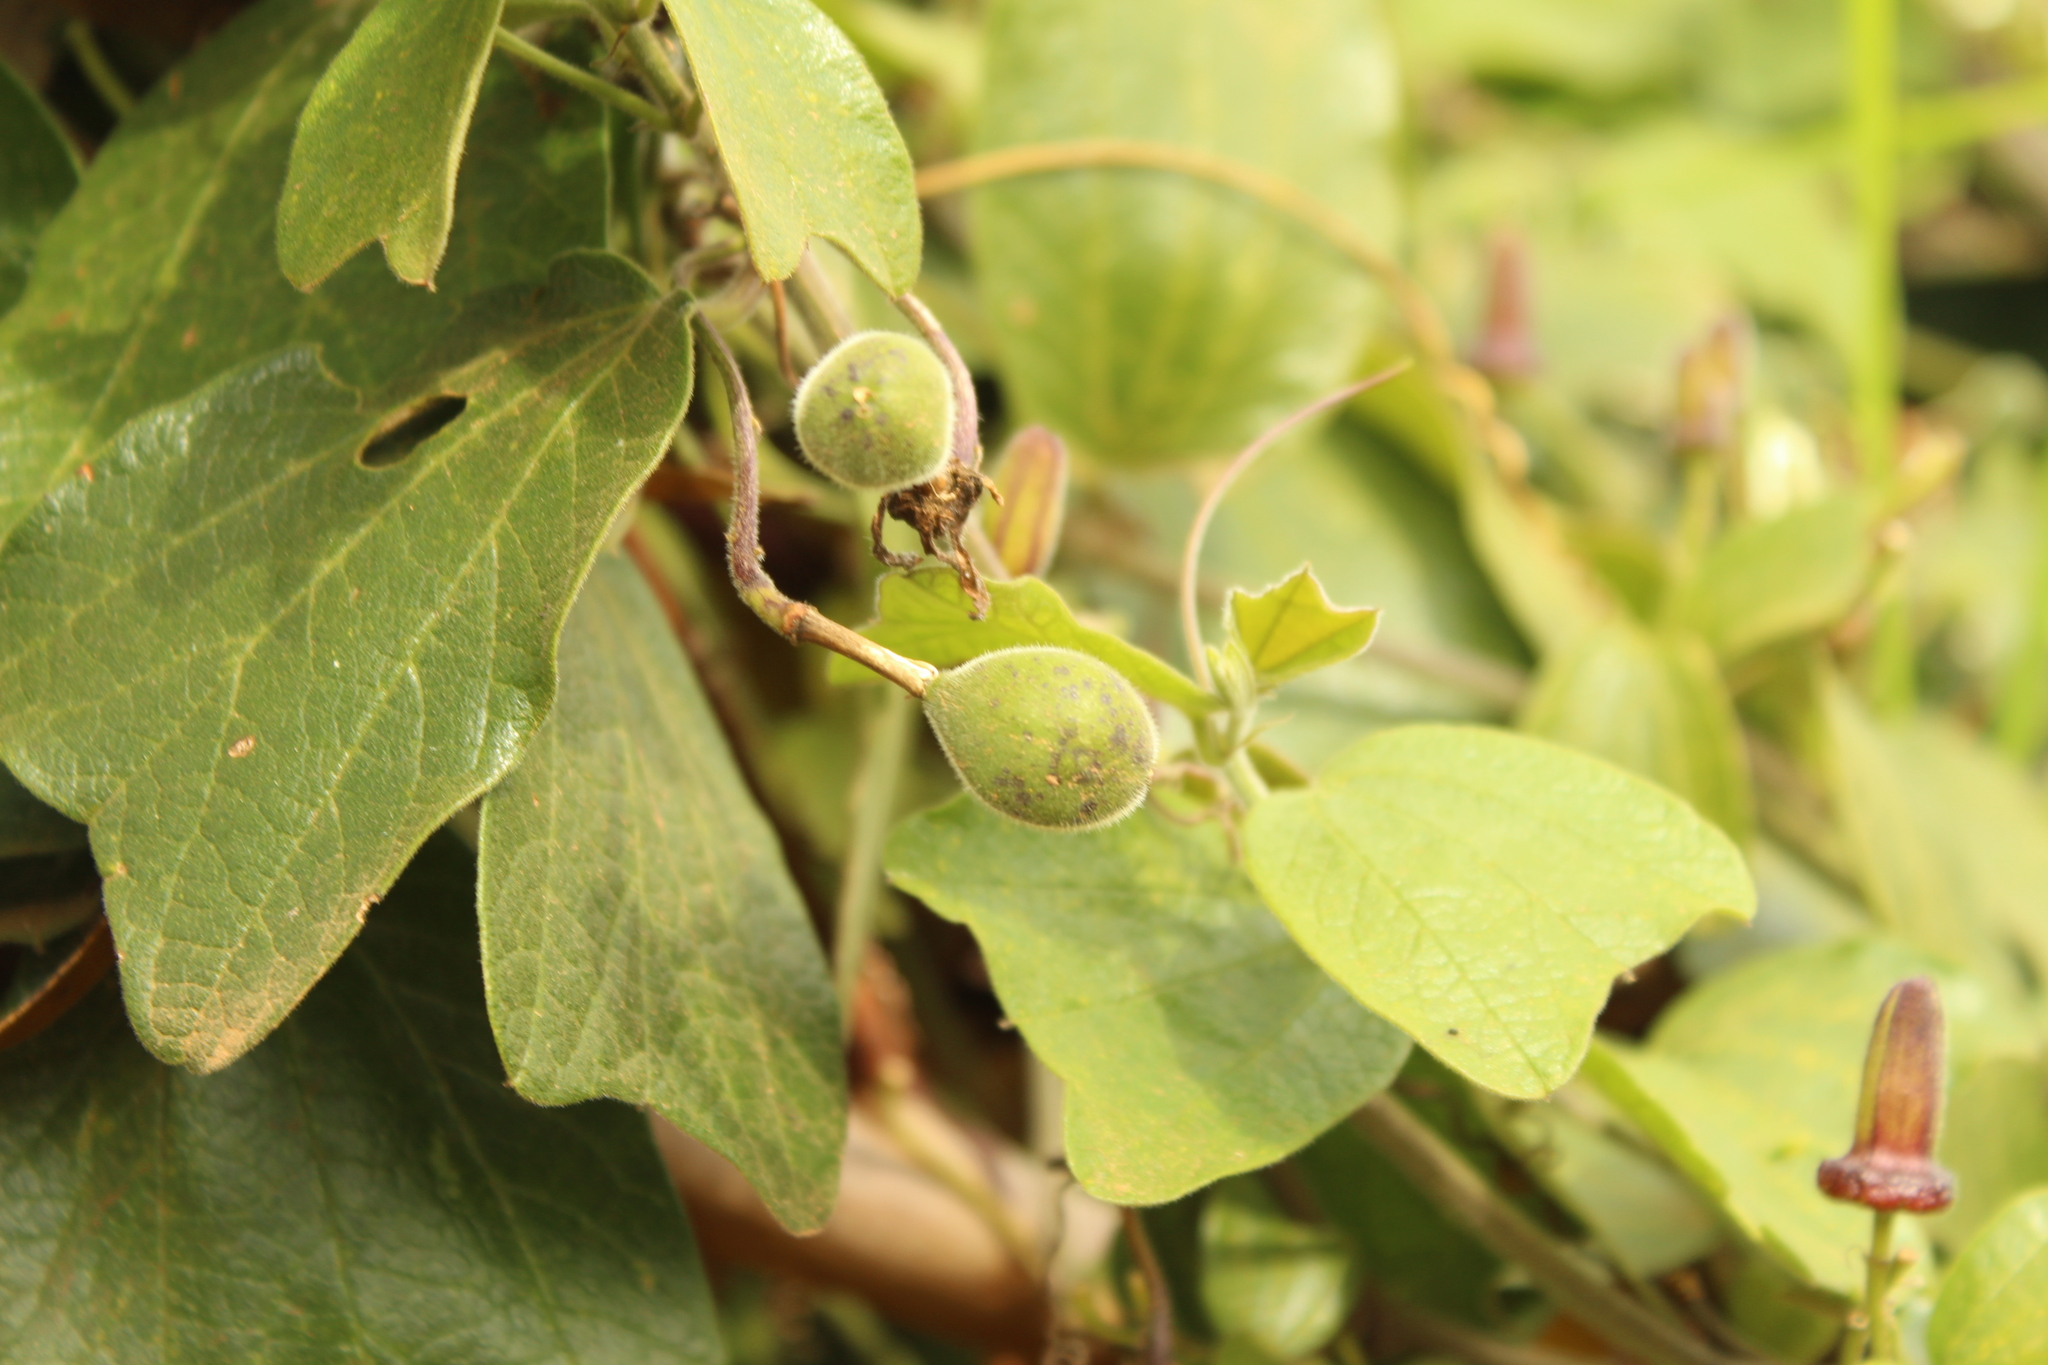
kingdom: Plantae
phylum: Tracheophyta
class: Magnoliopsida
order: Malpighiales
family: Passifloraceae
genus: Passiflora
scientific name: Passiflora bogotensis
